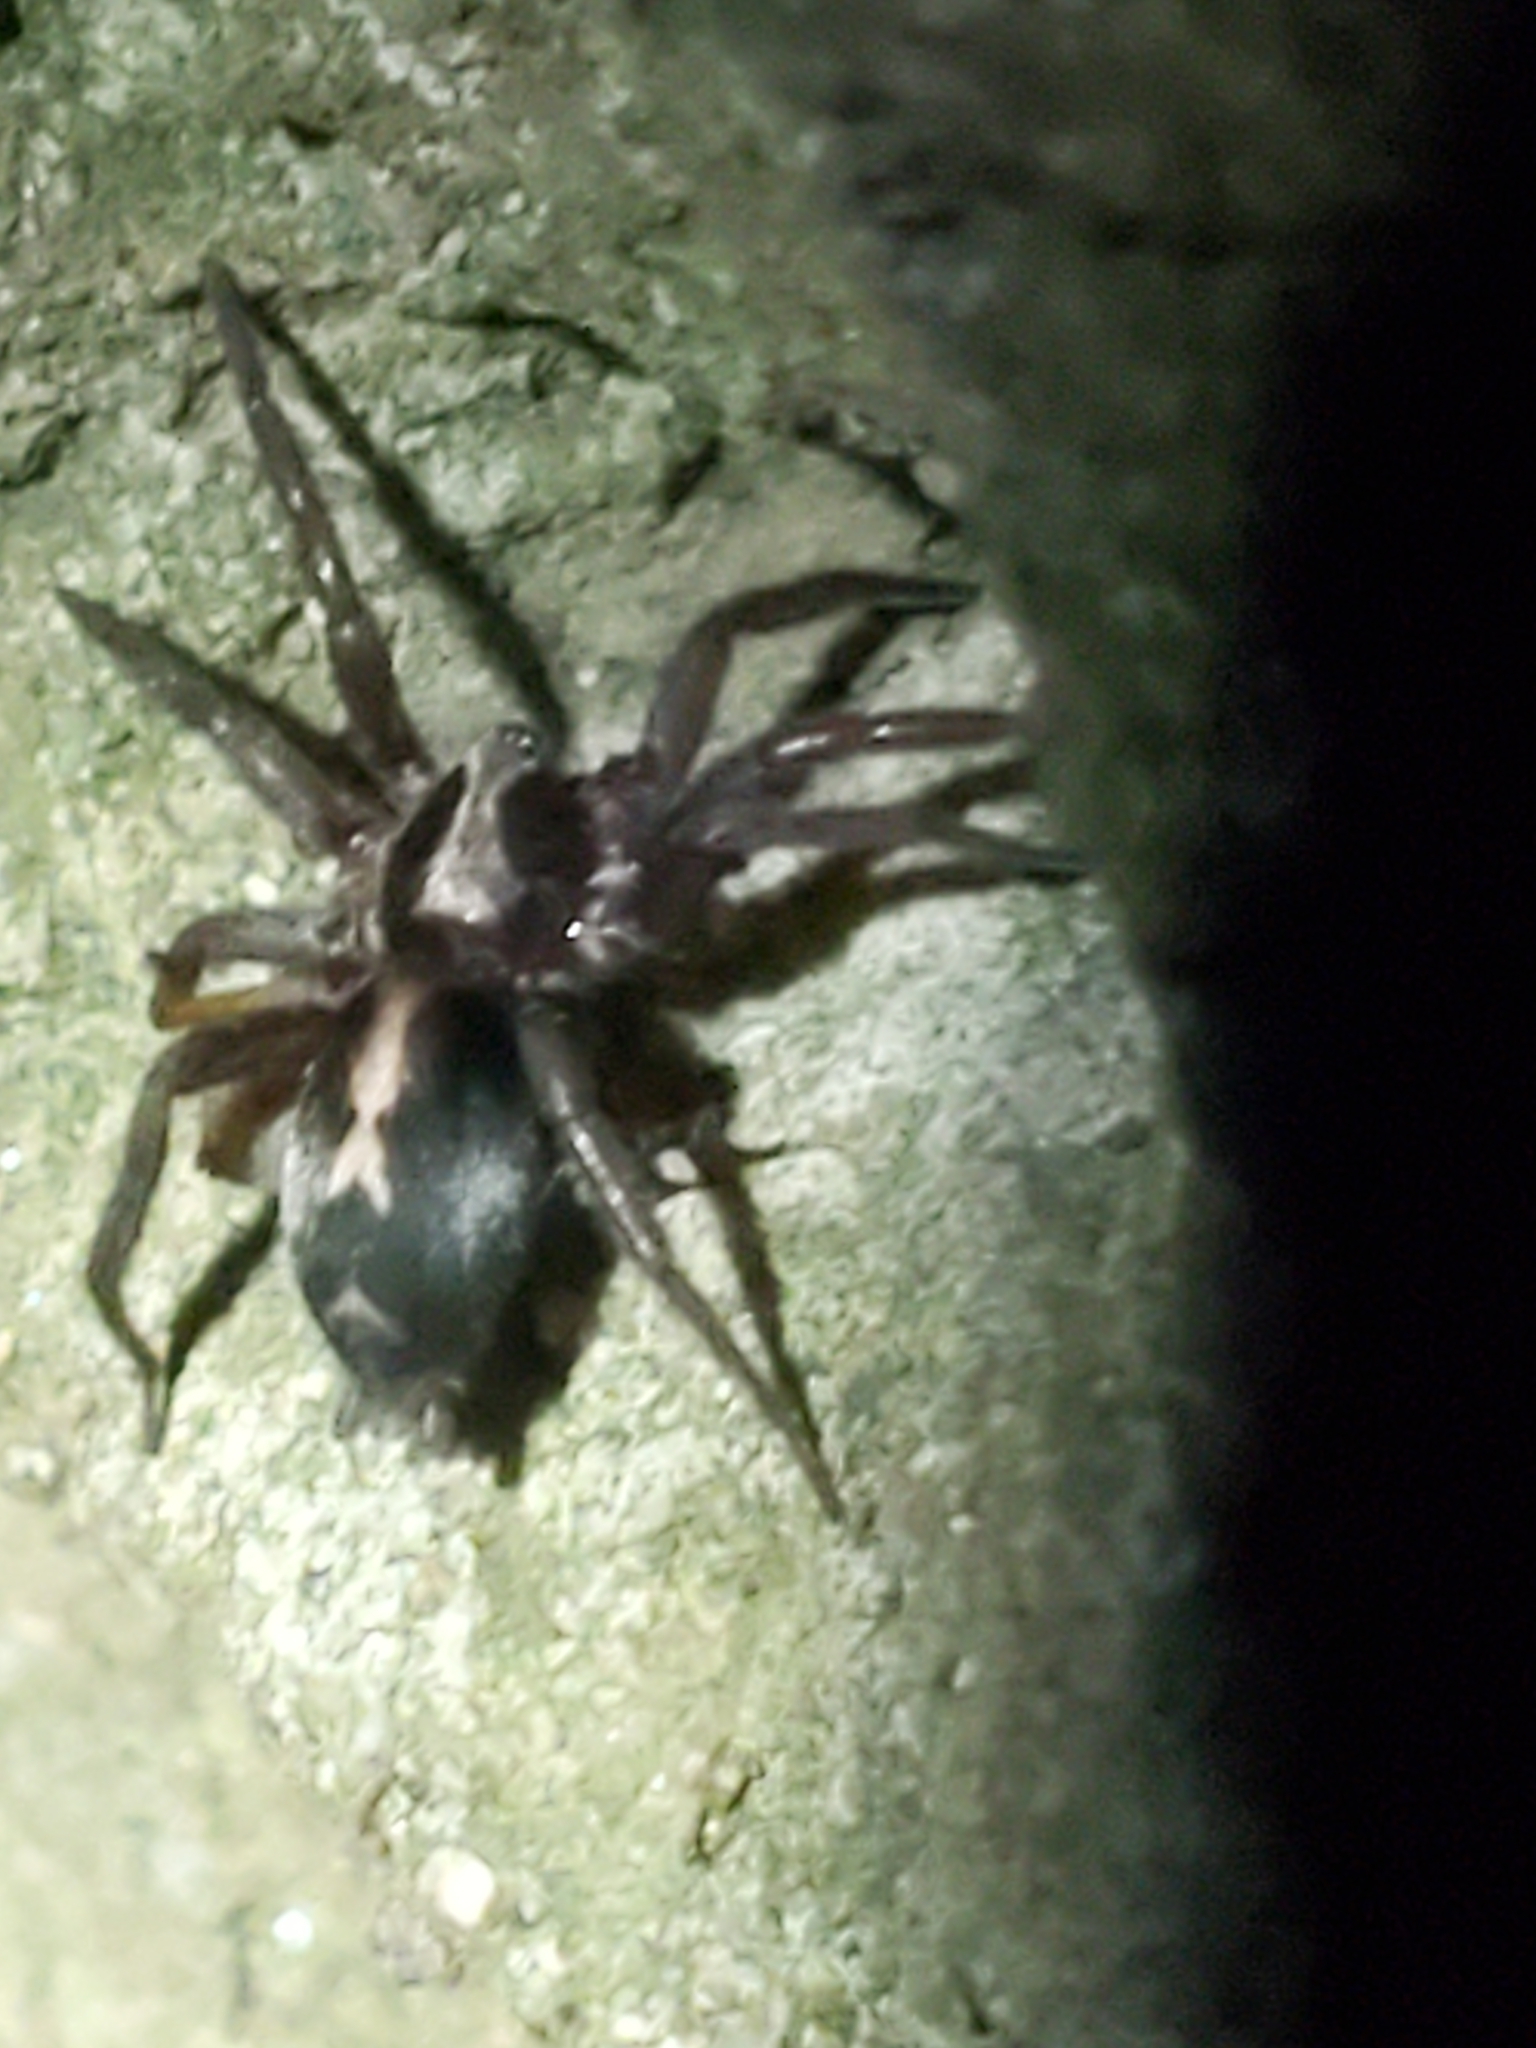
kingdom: Animalia
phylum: Arthropoda
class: Arachnida
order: Araneae
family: Gnaphosidae
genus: Herpyllus
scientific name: Herpyllus propinquus
